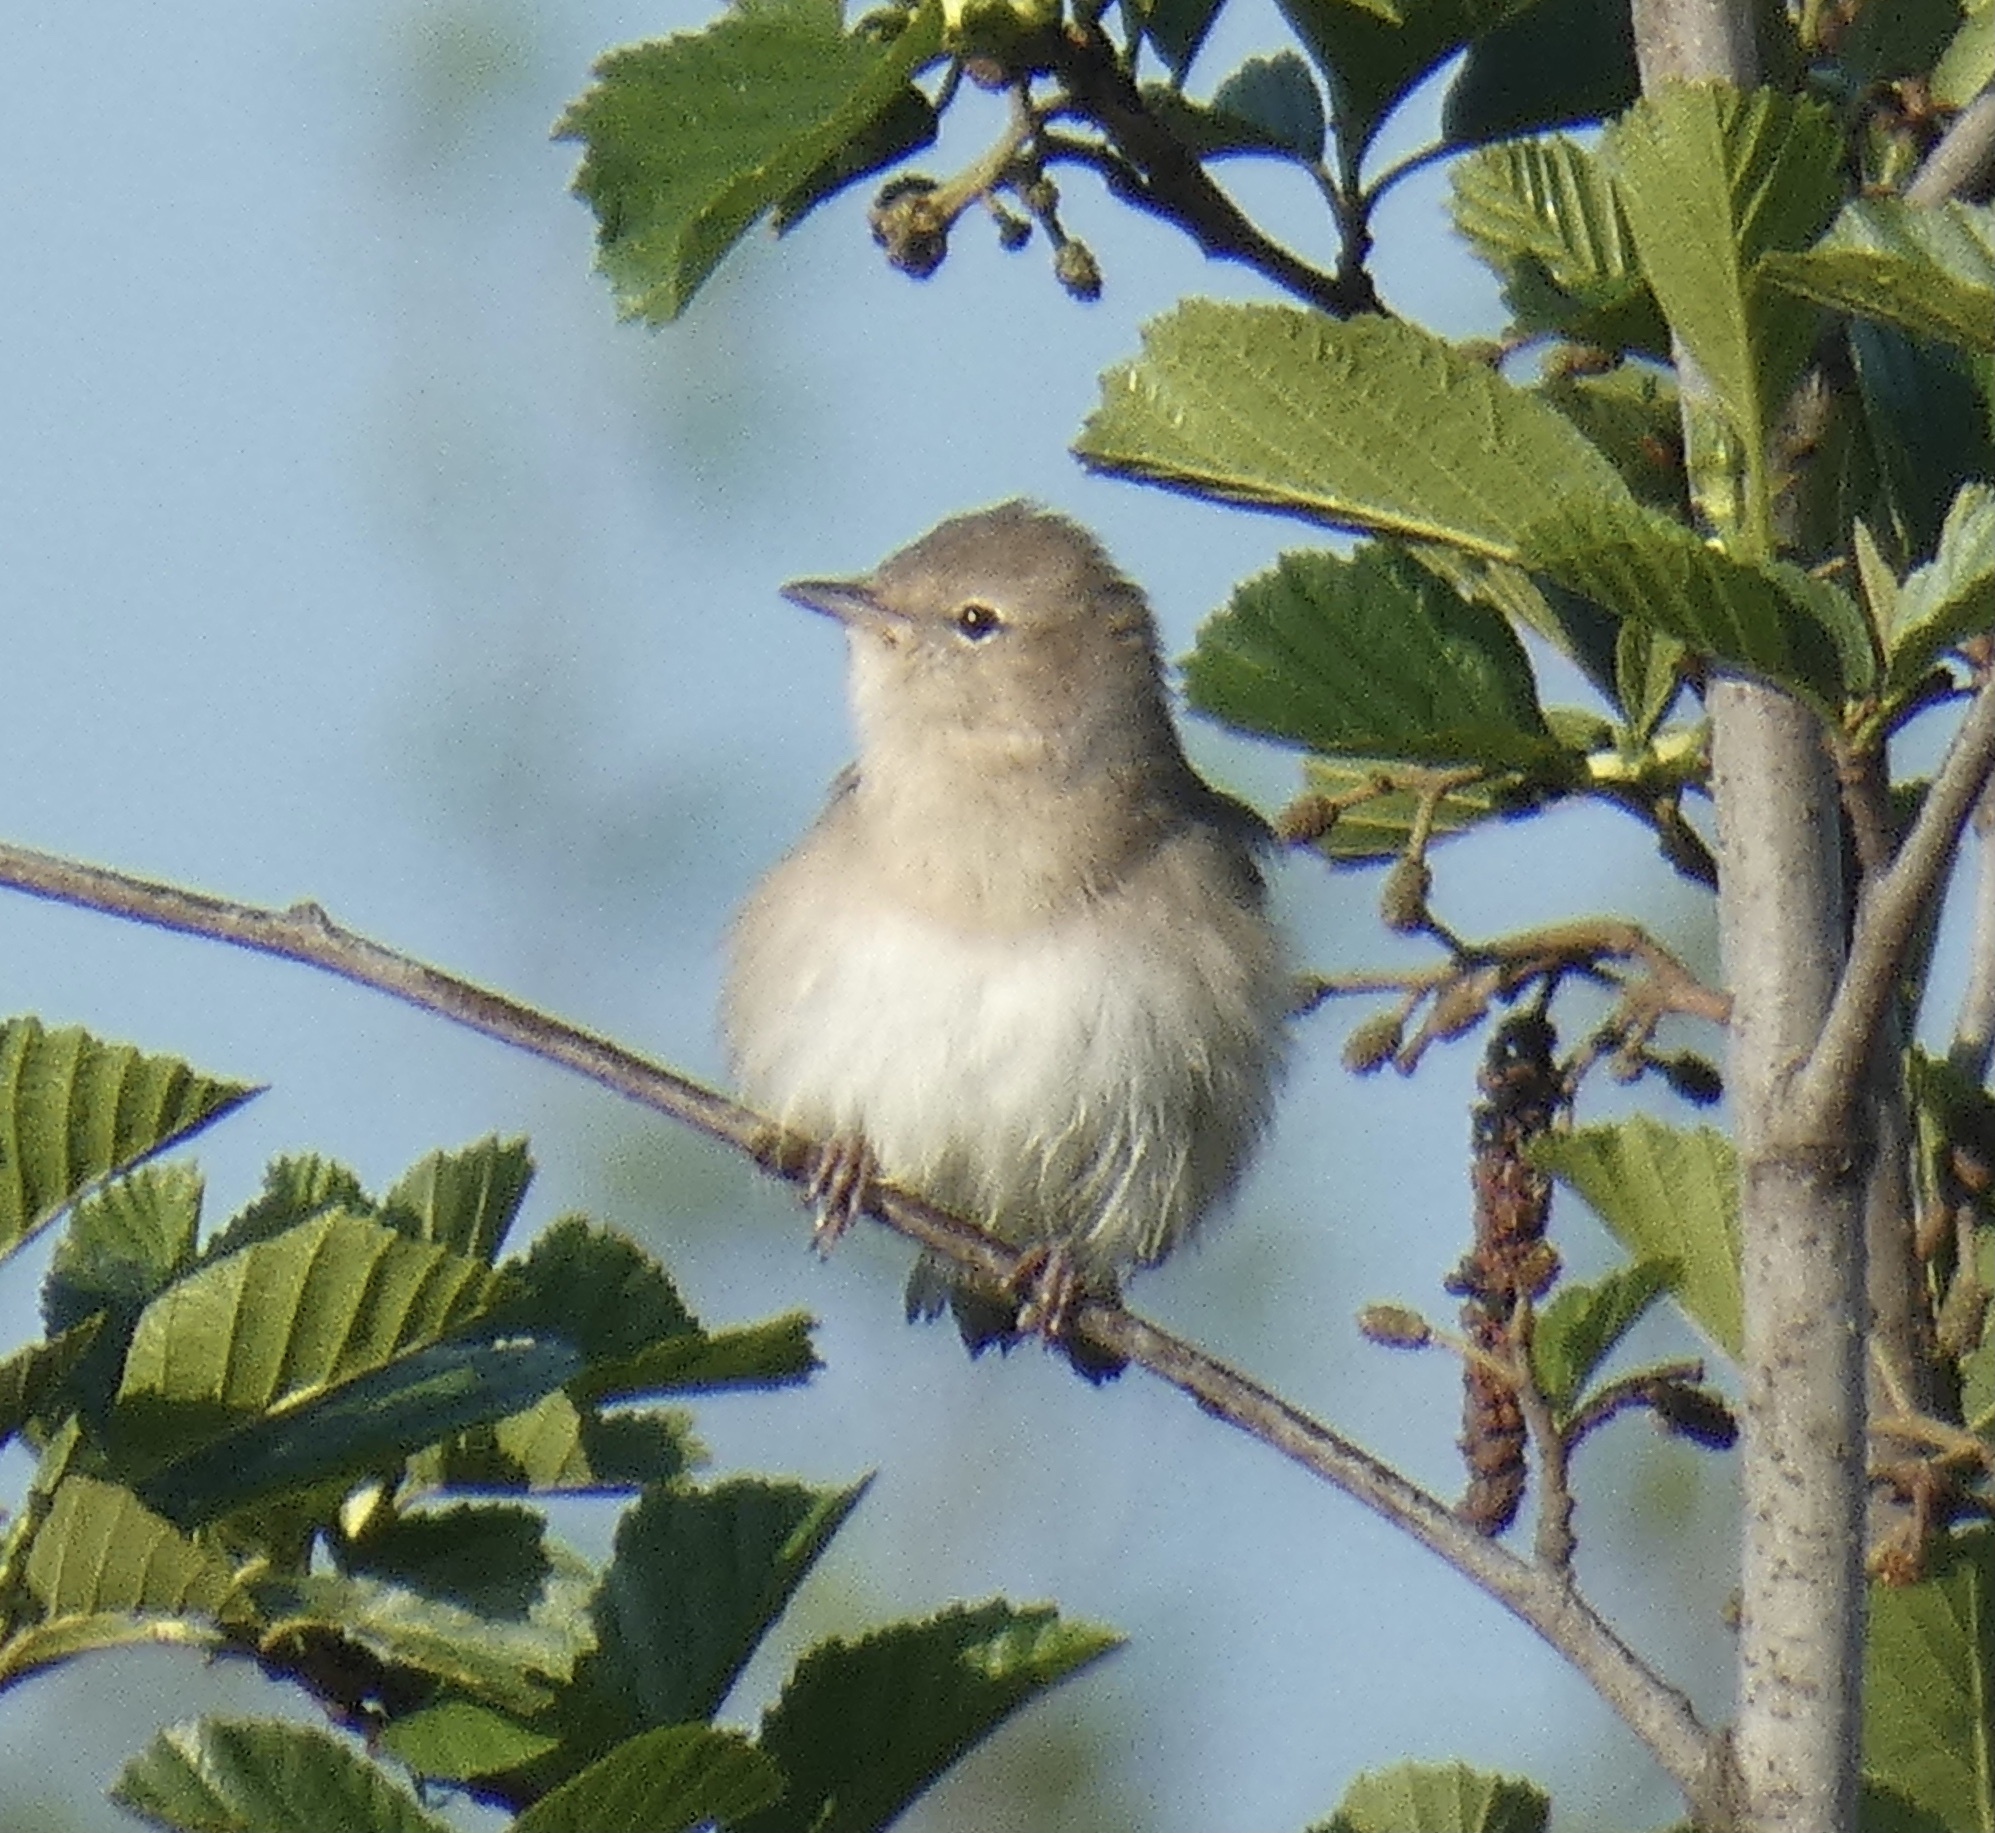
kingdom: Animalia
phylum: Chordata
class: Aves
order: Passeriformes
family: Sylviidae
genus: Sylvia
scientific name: Sylvia borin
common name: Garden warbler
